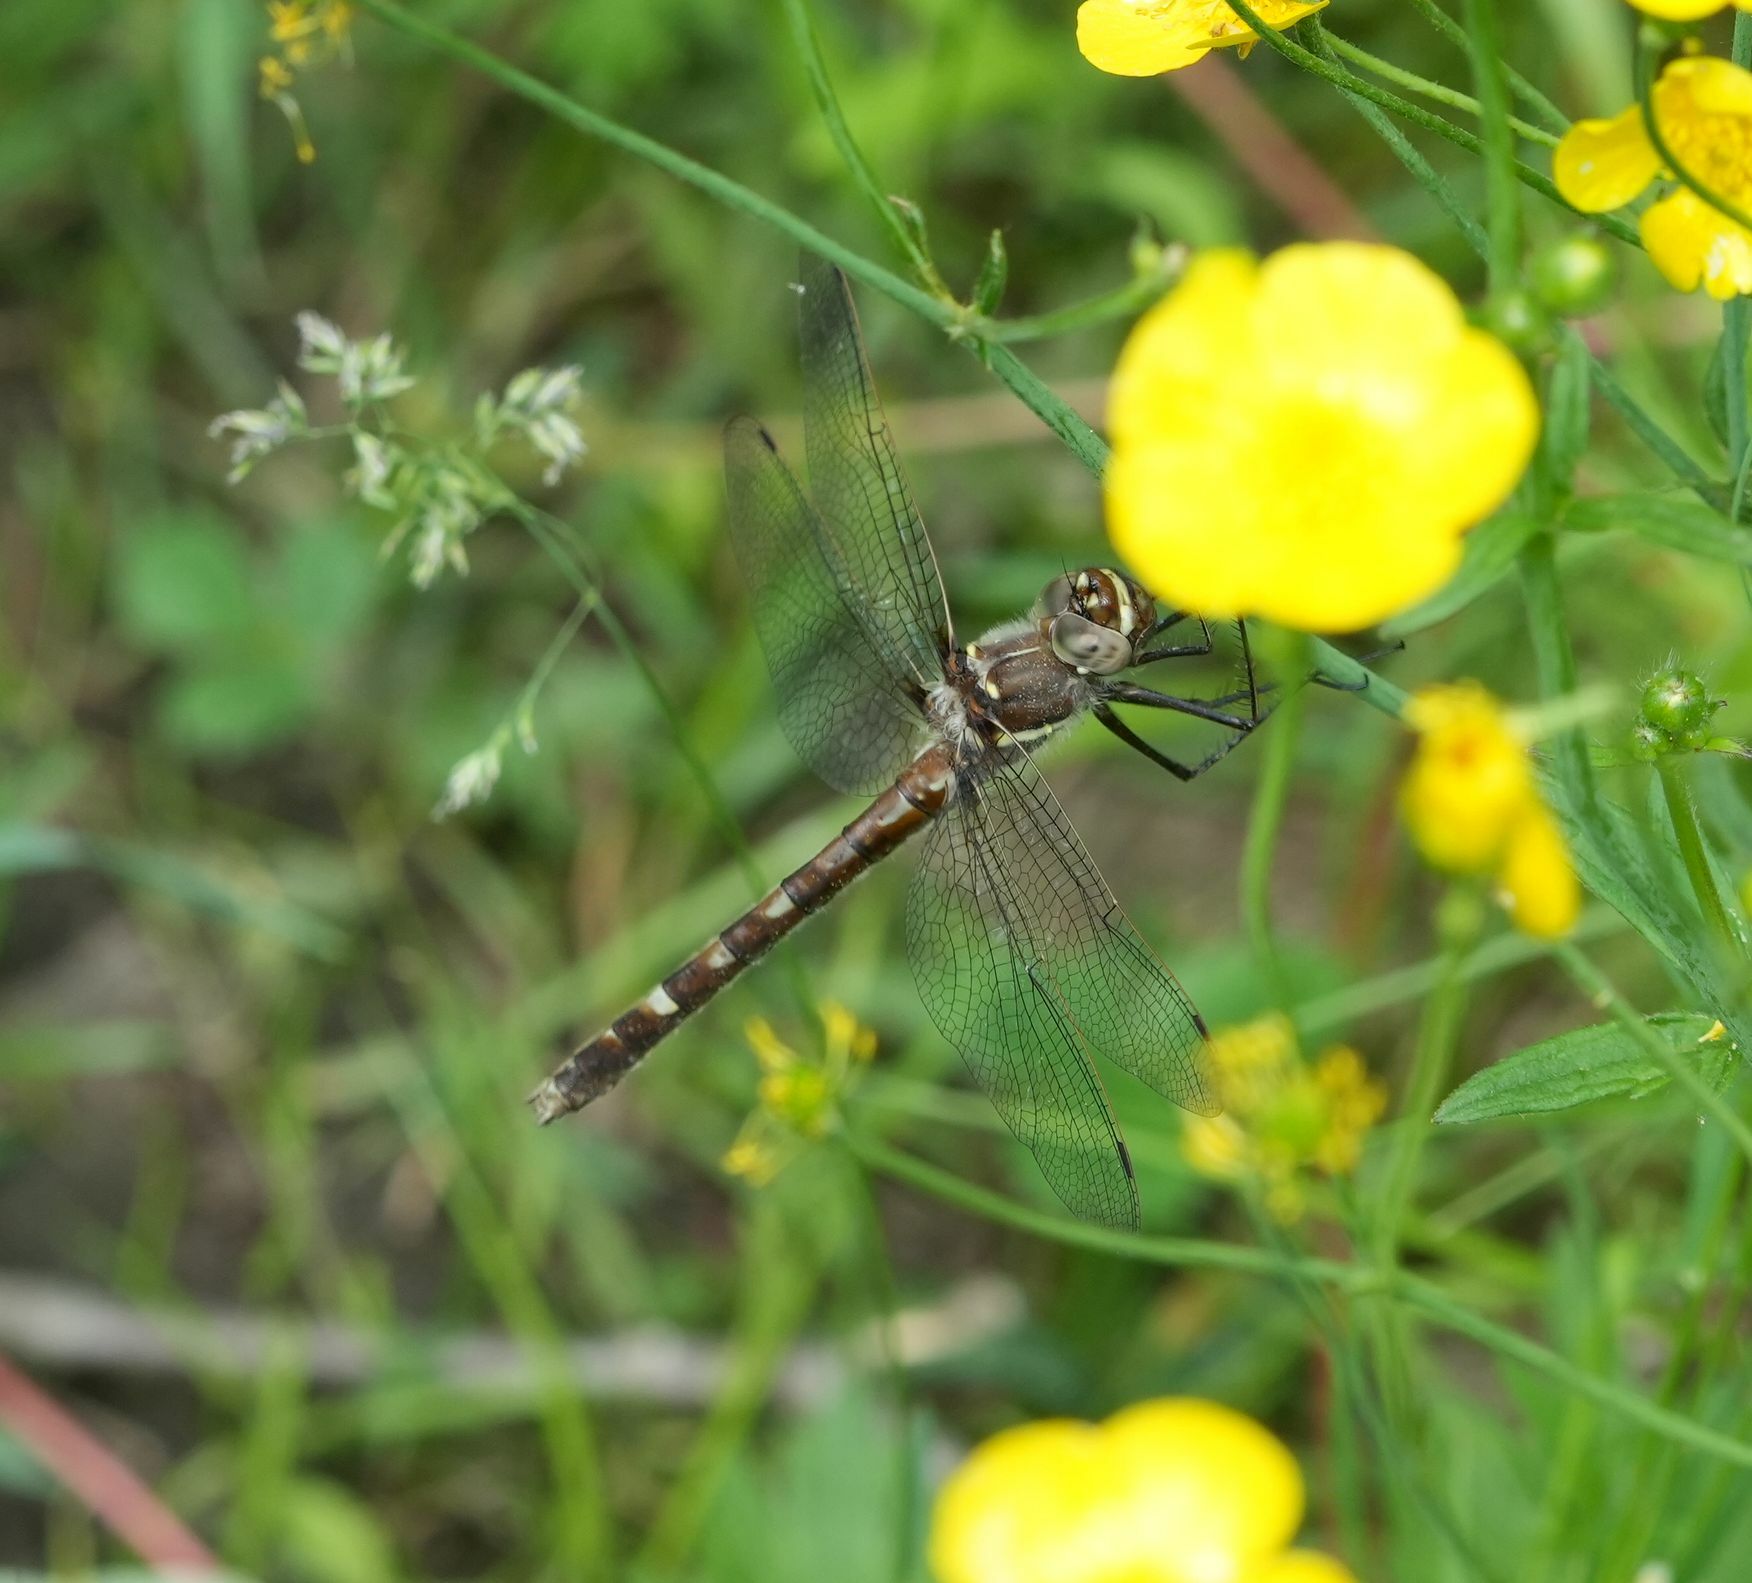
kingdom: Animalia
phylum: Arthropoda
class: Insecta
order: Odonata
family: Macromiidae
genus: Didymops
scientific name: Didymops transversa
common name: Stream cruiser
